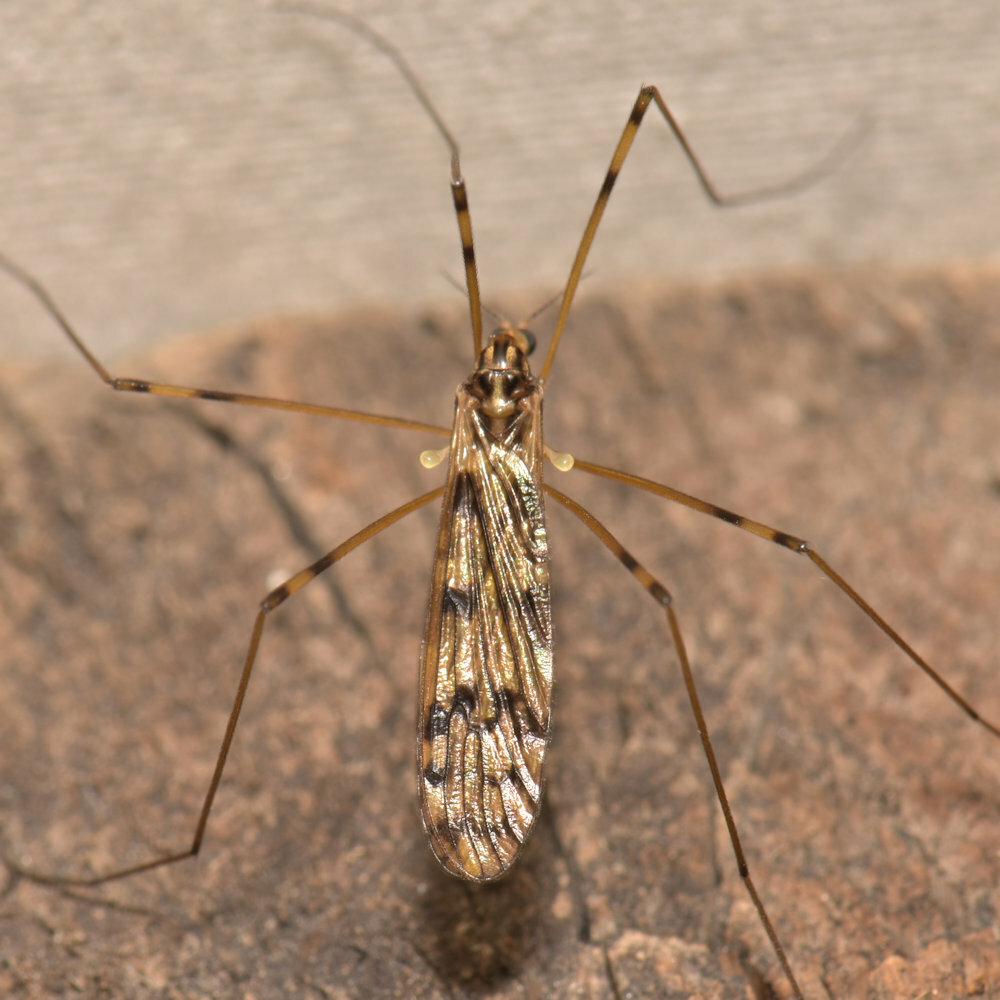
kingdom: Animalia
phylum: Arthropoda
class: Insecta
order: Diptera
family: Limoniidae
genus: Limonia
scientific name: Limonia cinctipes
